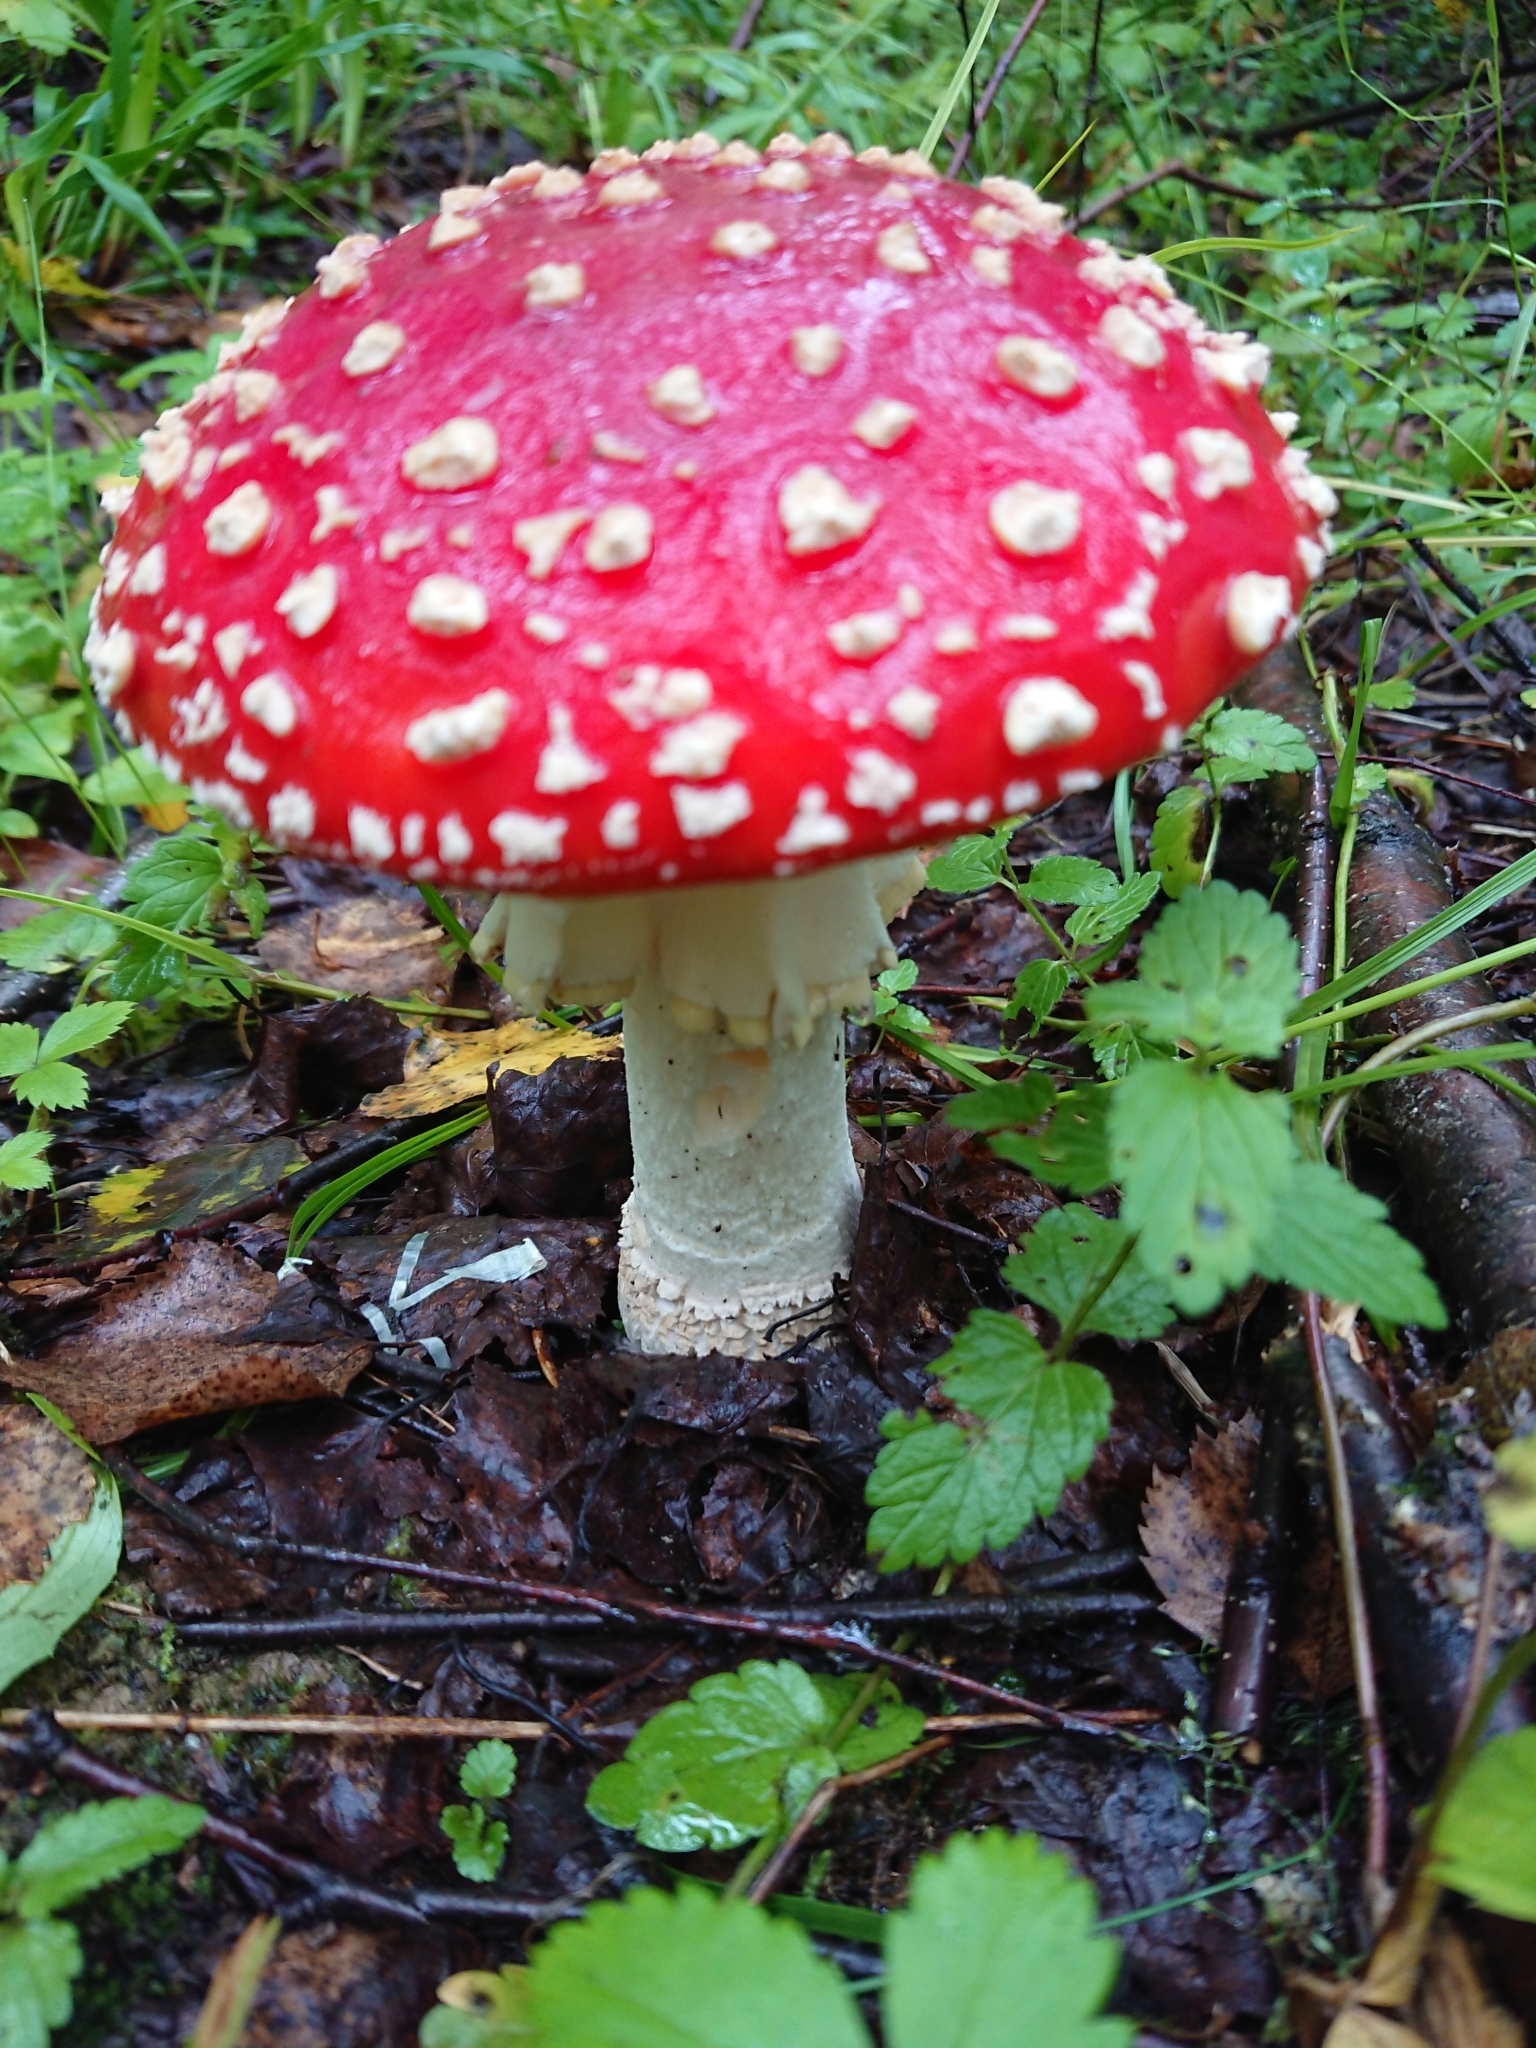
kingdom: Fungi
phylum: Basidiomycota
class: Agaricomycetes
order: Agaricales
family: Amanitaceae
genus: Amanita
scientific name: Amanita muscaria
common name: Fly agaric
